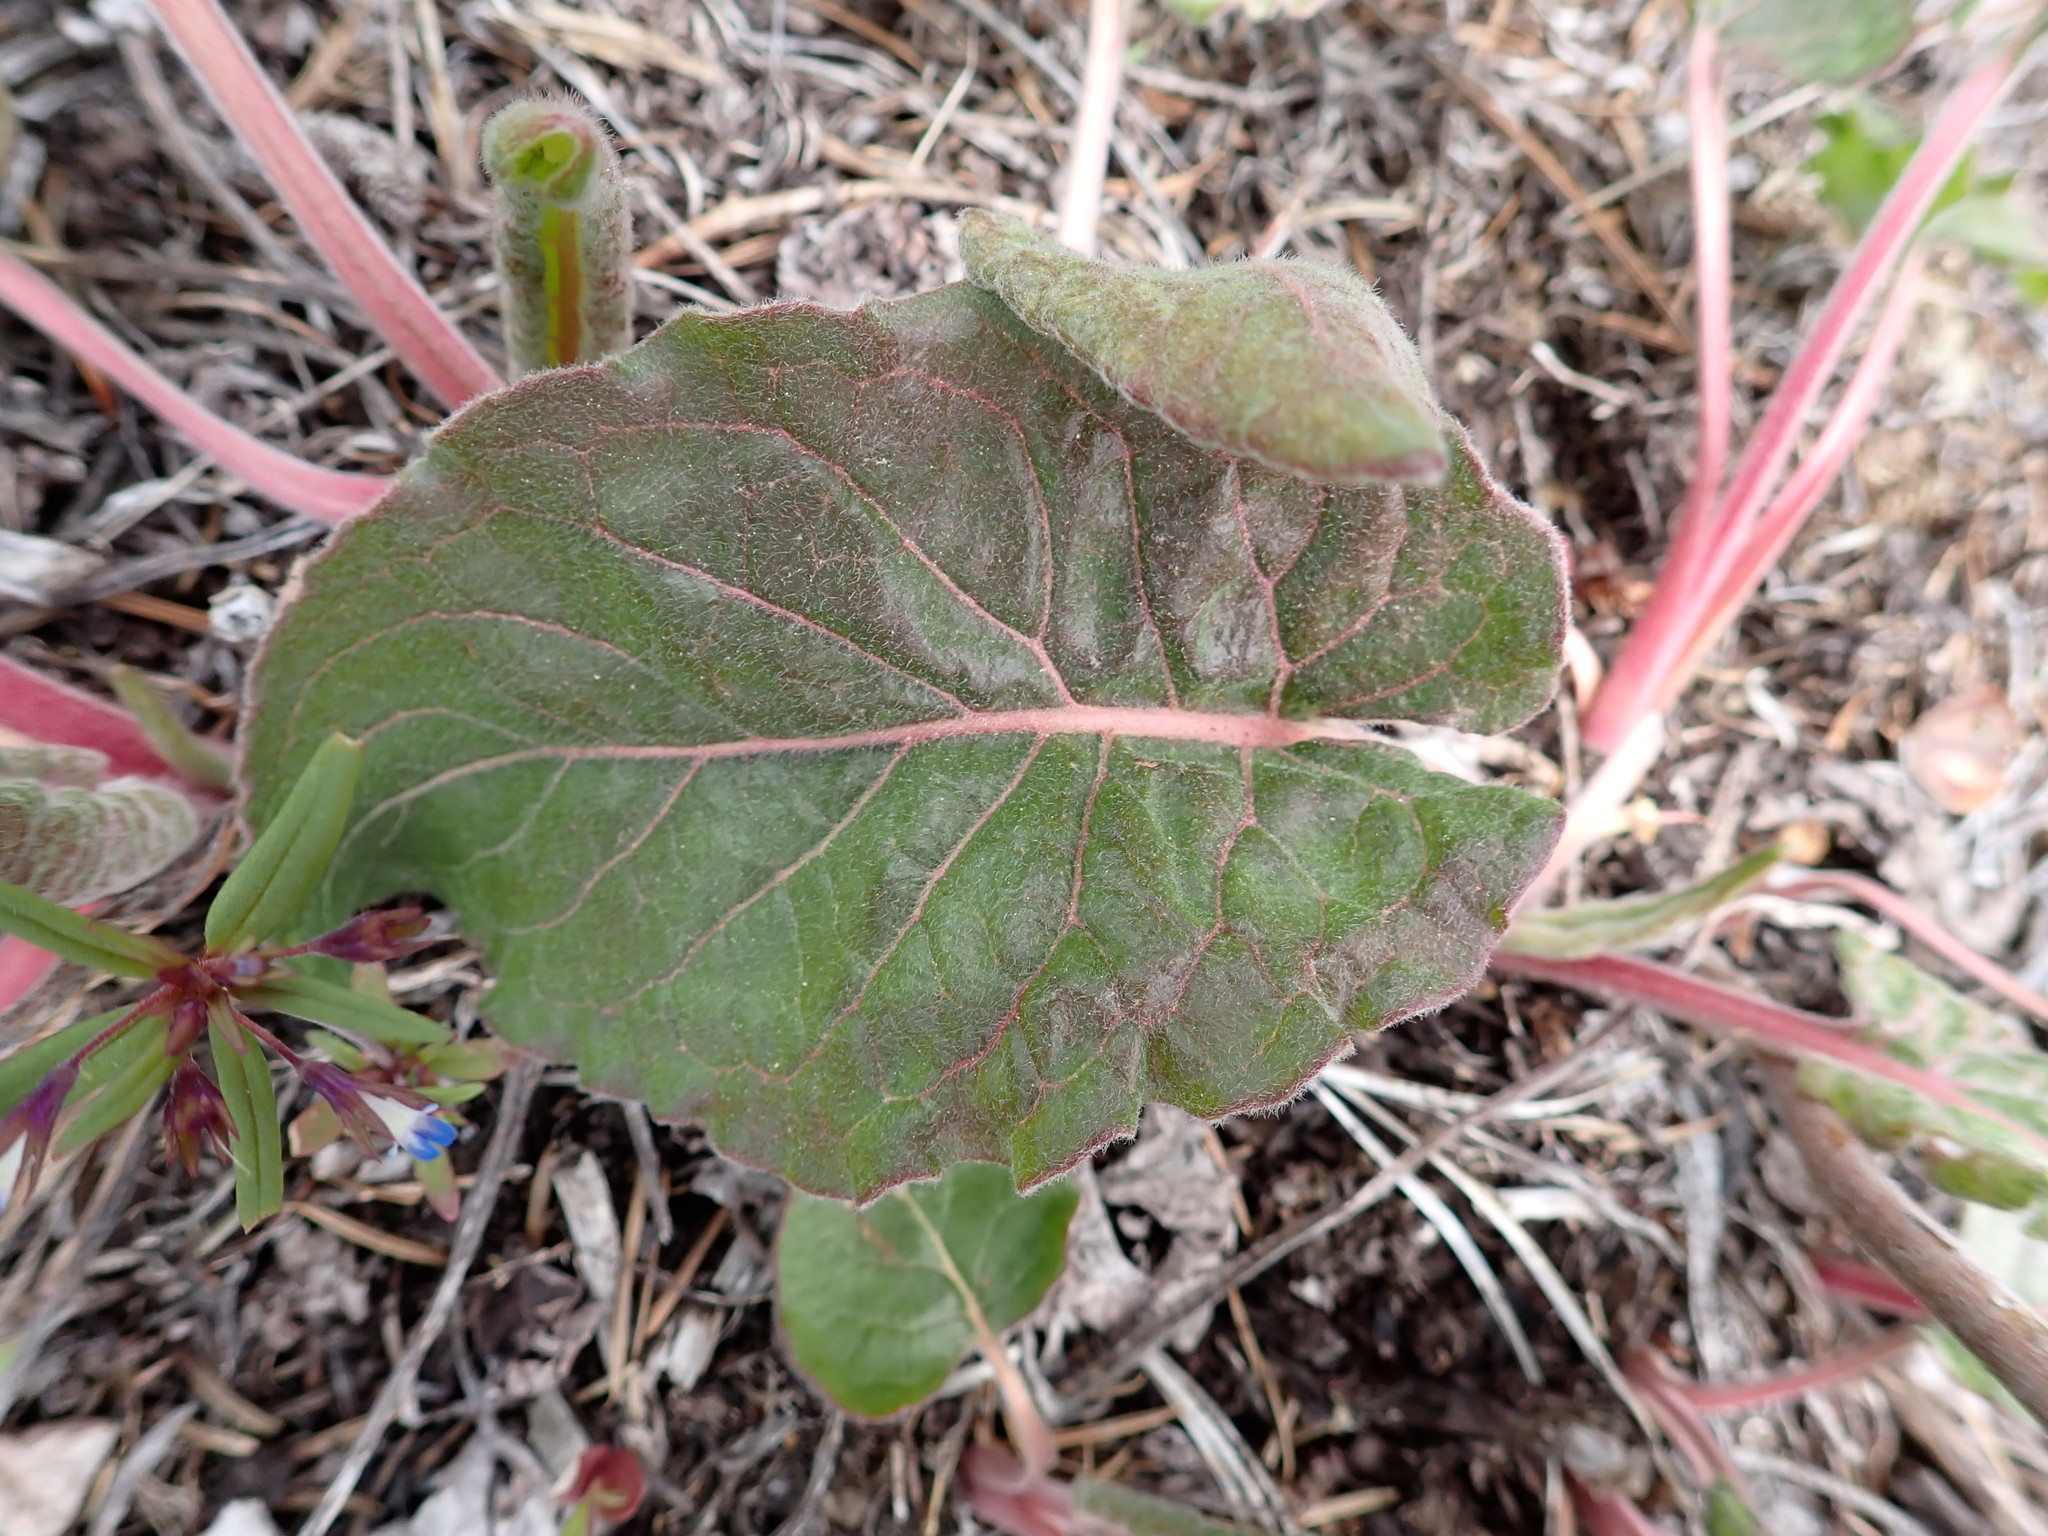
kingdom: Plantae
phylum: Tracheophyta
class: Magnoliopsida
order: Caryophyllales
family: Polygonaceae
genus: Eriogonum
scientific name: Eriogonum elatum
